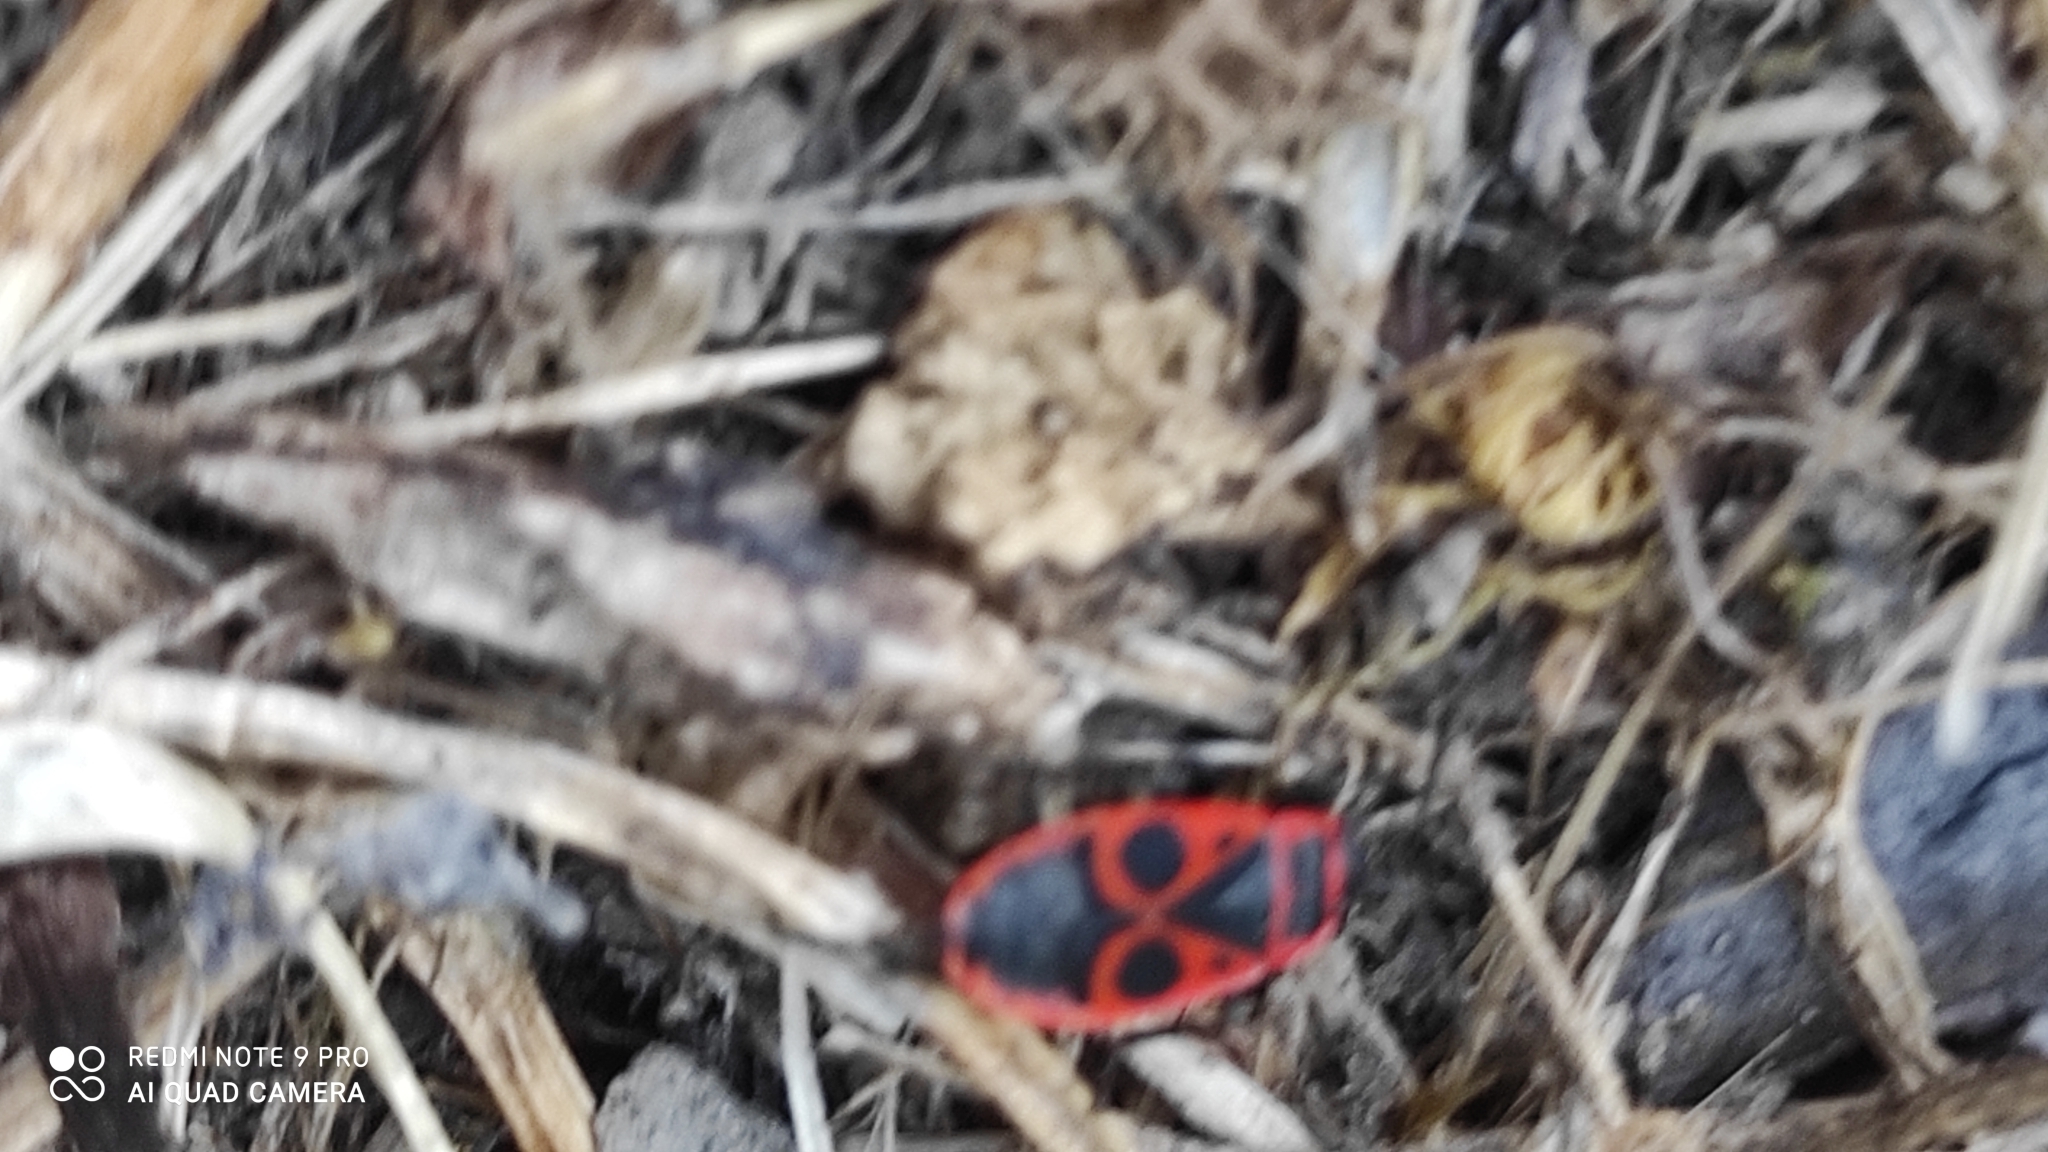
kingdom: Animalia
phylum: Arthropoda
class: Insecta
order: Hemiptera
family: Pyrrhocoridae
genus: Pyrrhocoris
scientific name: Pyrrhocoris apterus
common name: Firebug
